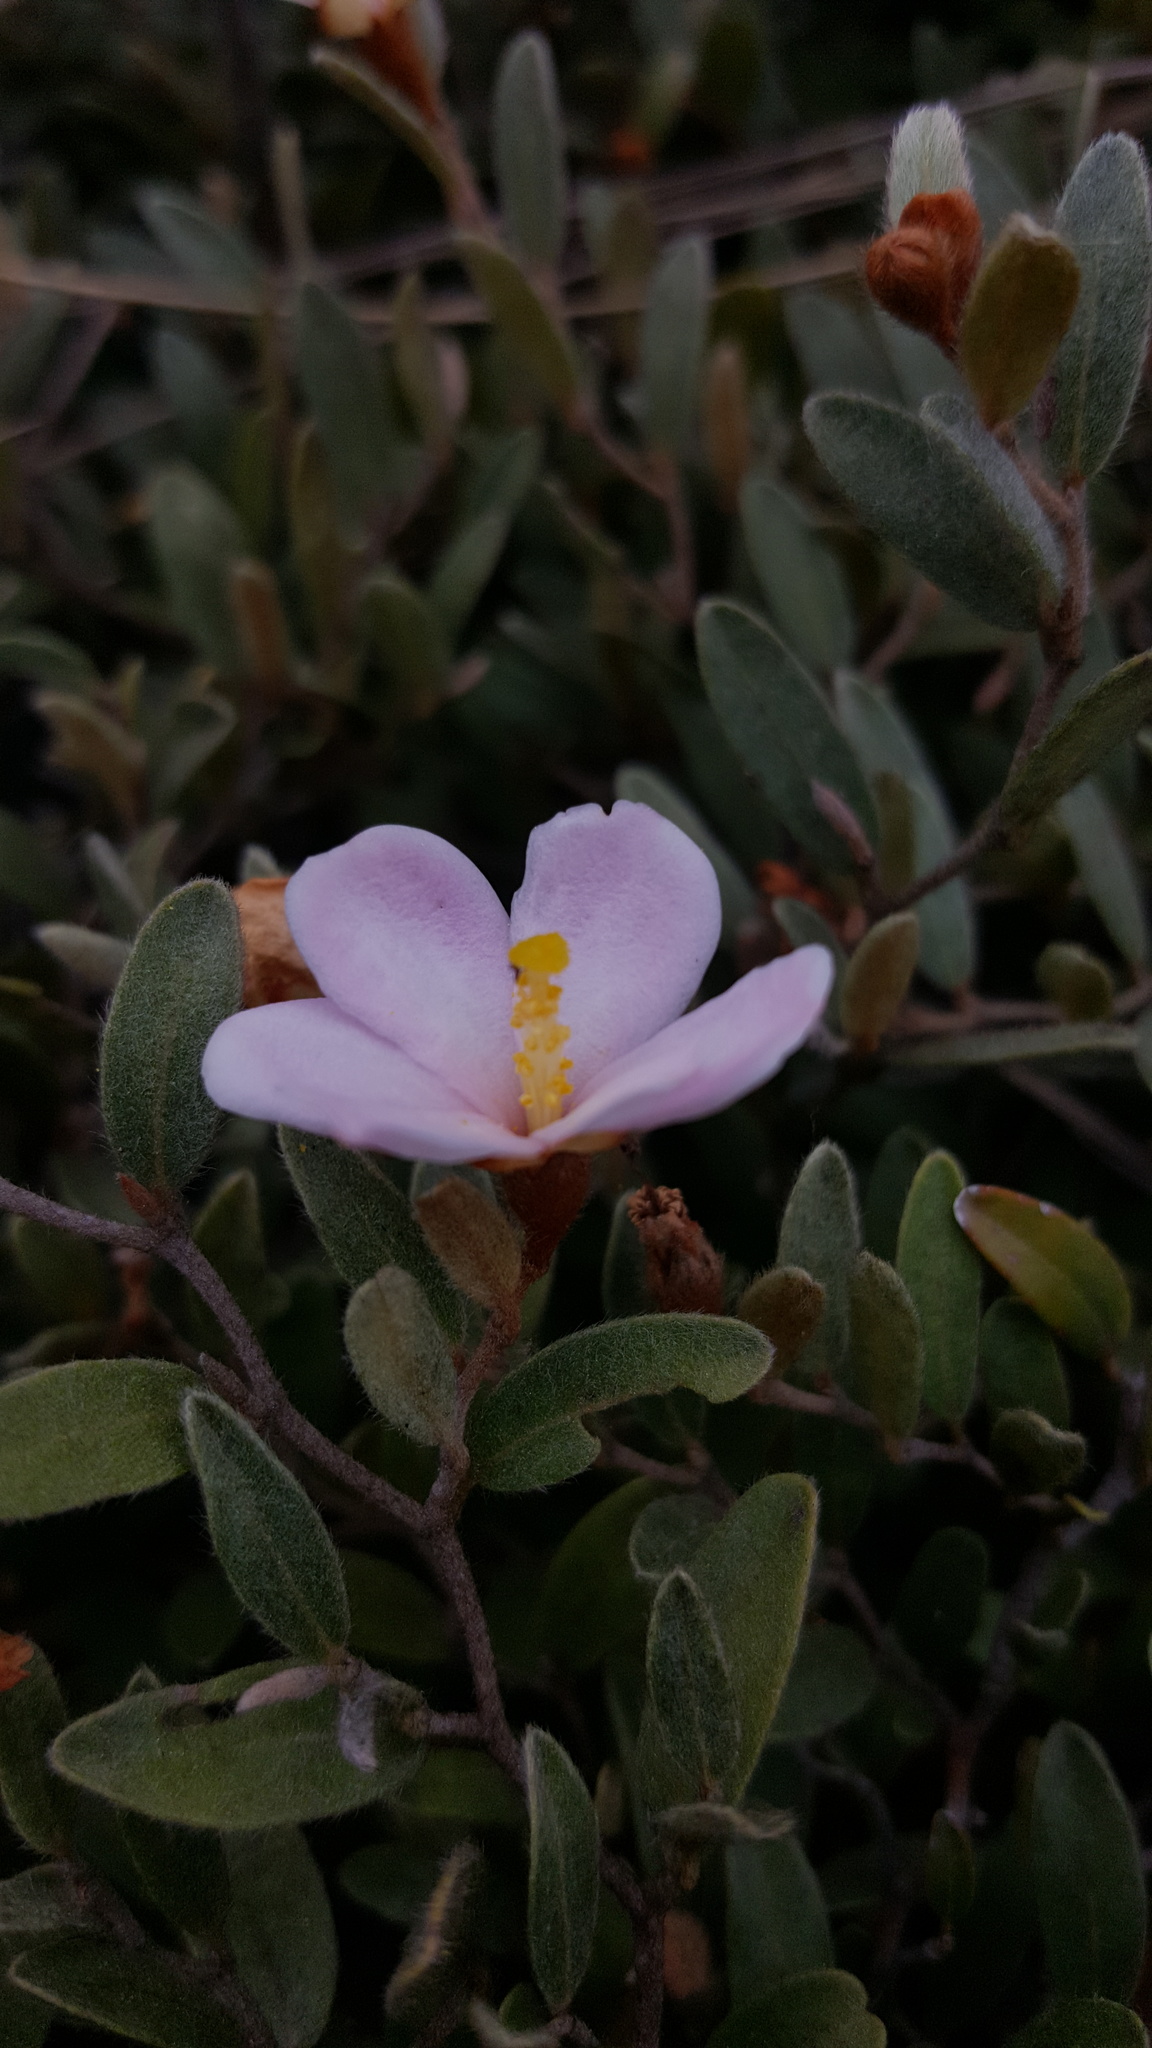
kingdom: Plantae
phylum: Tracheophyta
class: Magnoliopsida
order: Malvales
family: Sarcolaenaceae
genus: Xerochlamys
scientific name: Xerochlamys itremoensis
